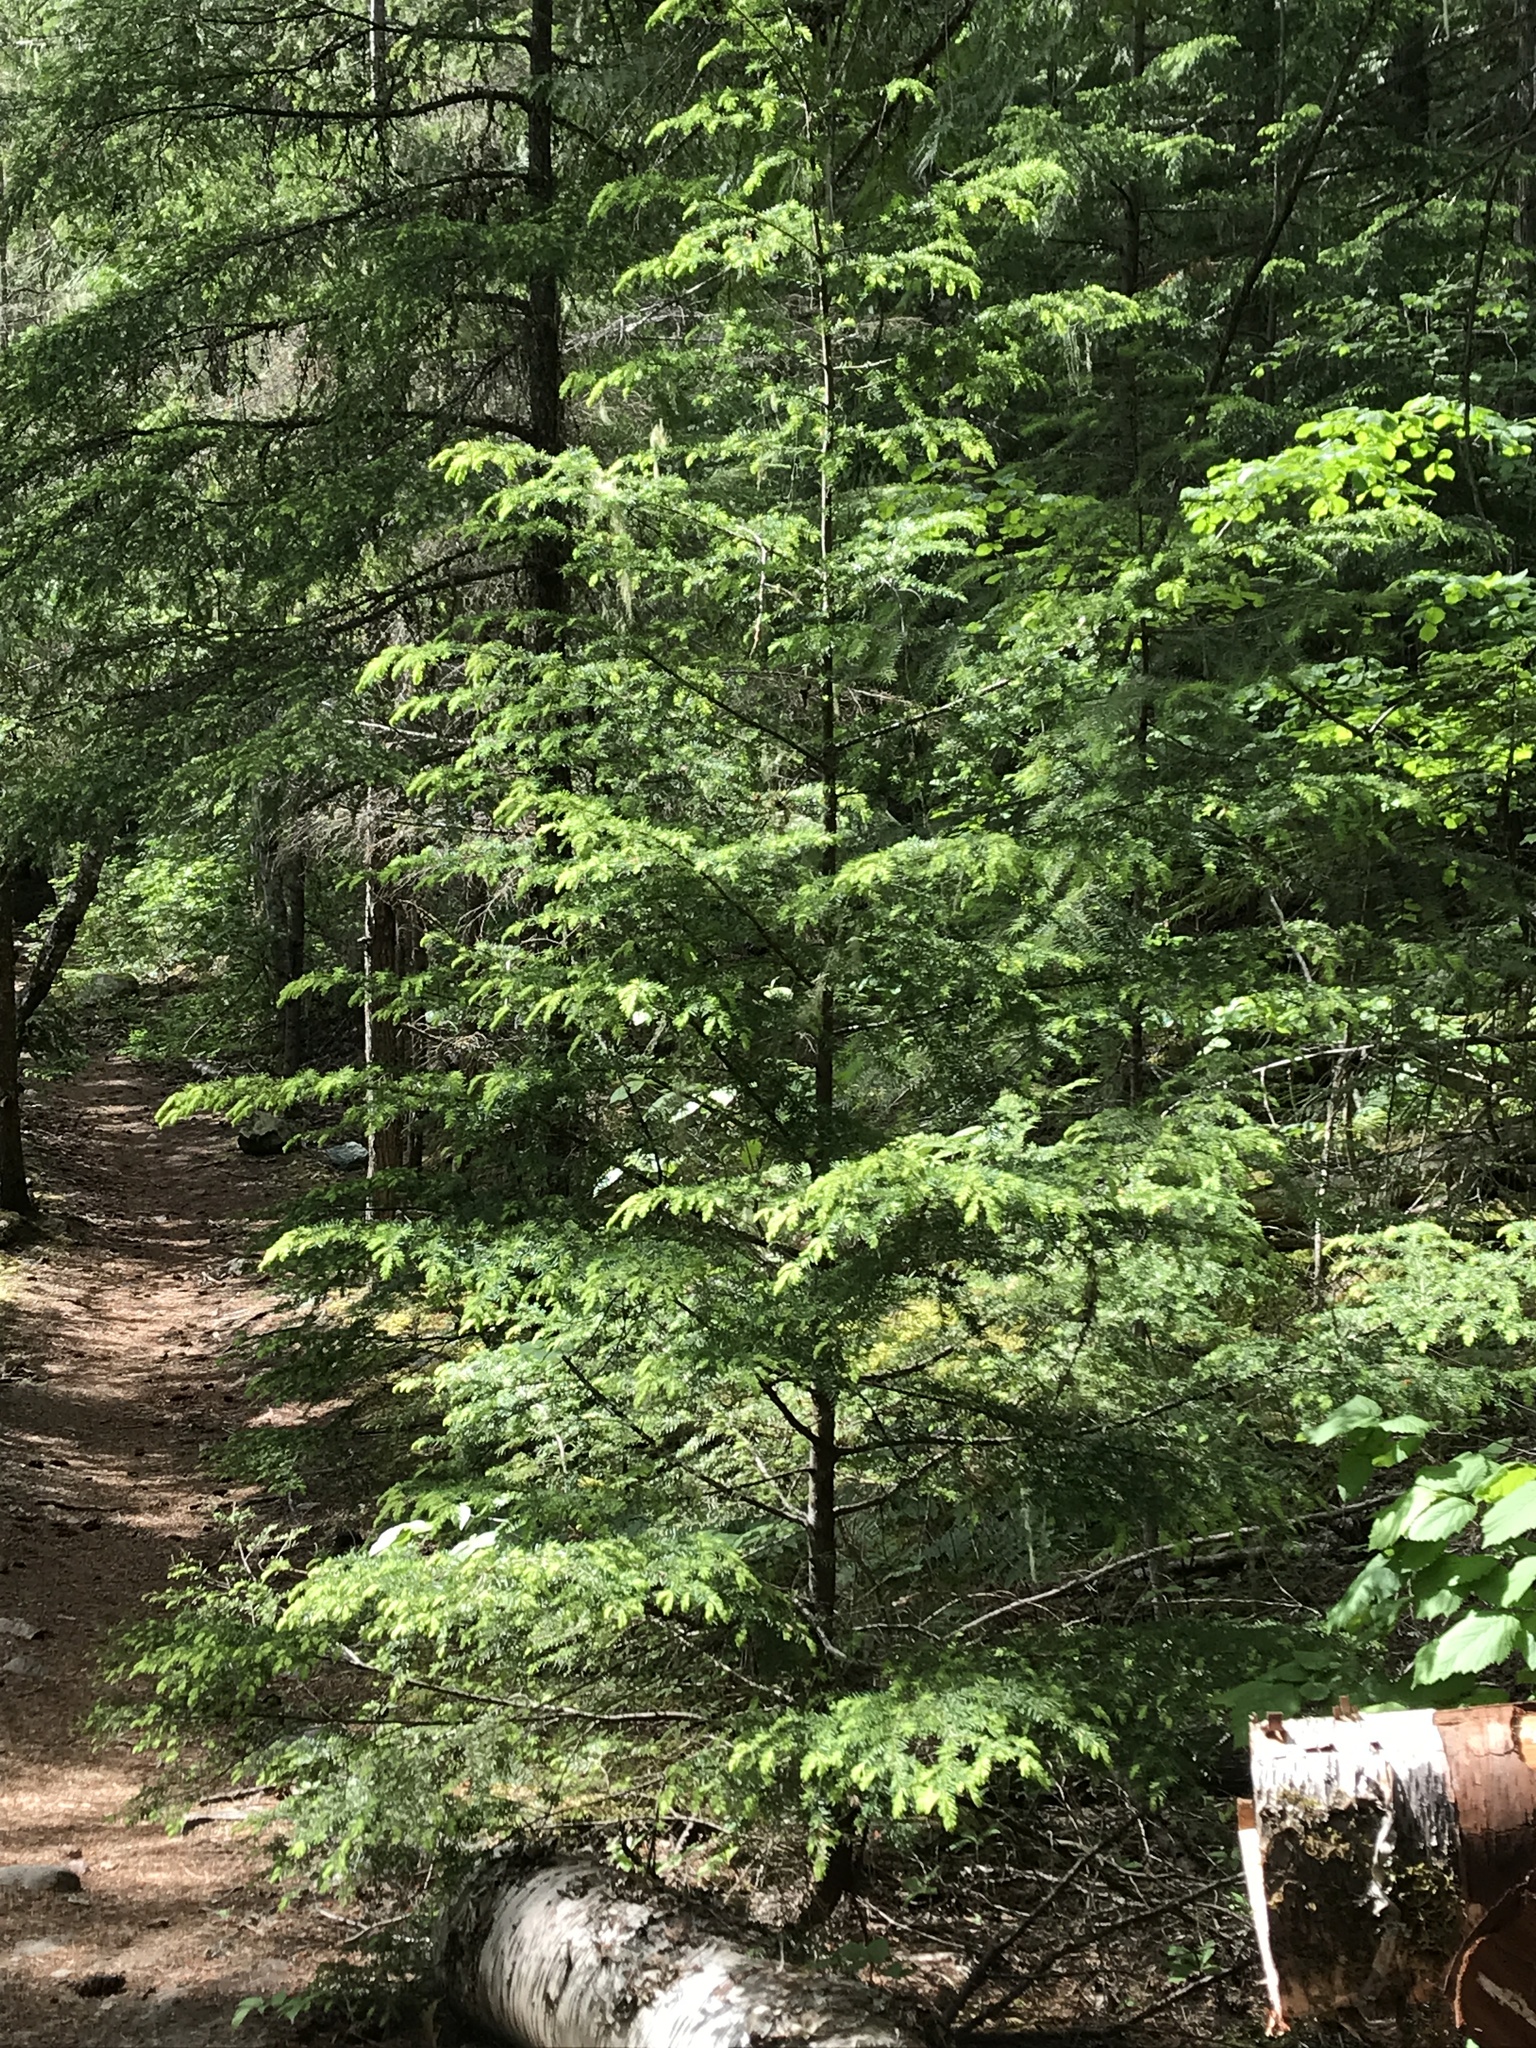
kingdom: Plantae
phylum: Tracheophyta
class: Pinopsida
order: Pinales
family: Pinaceae
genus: Tsuga
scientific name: Tsuga heterophylla
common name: Western hemlock
